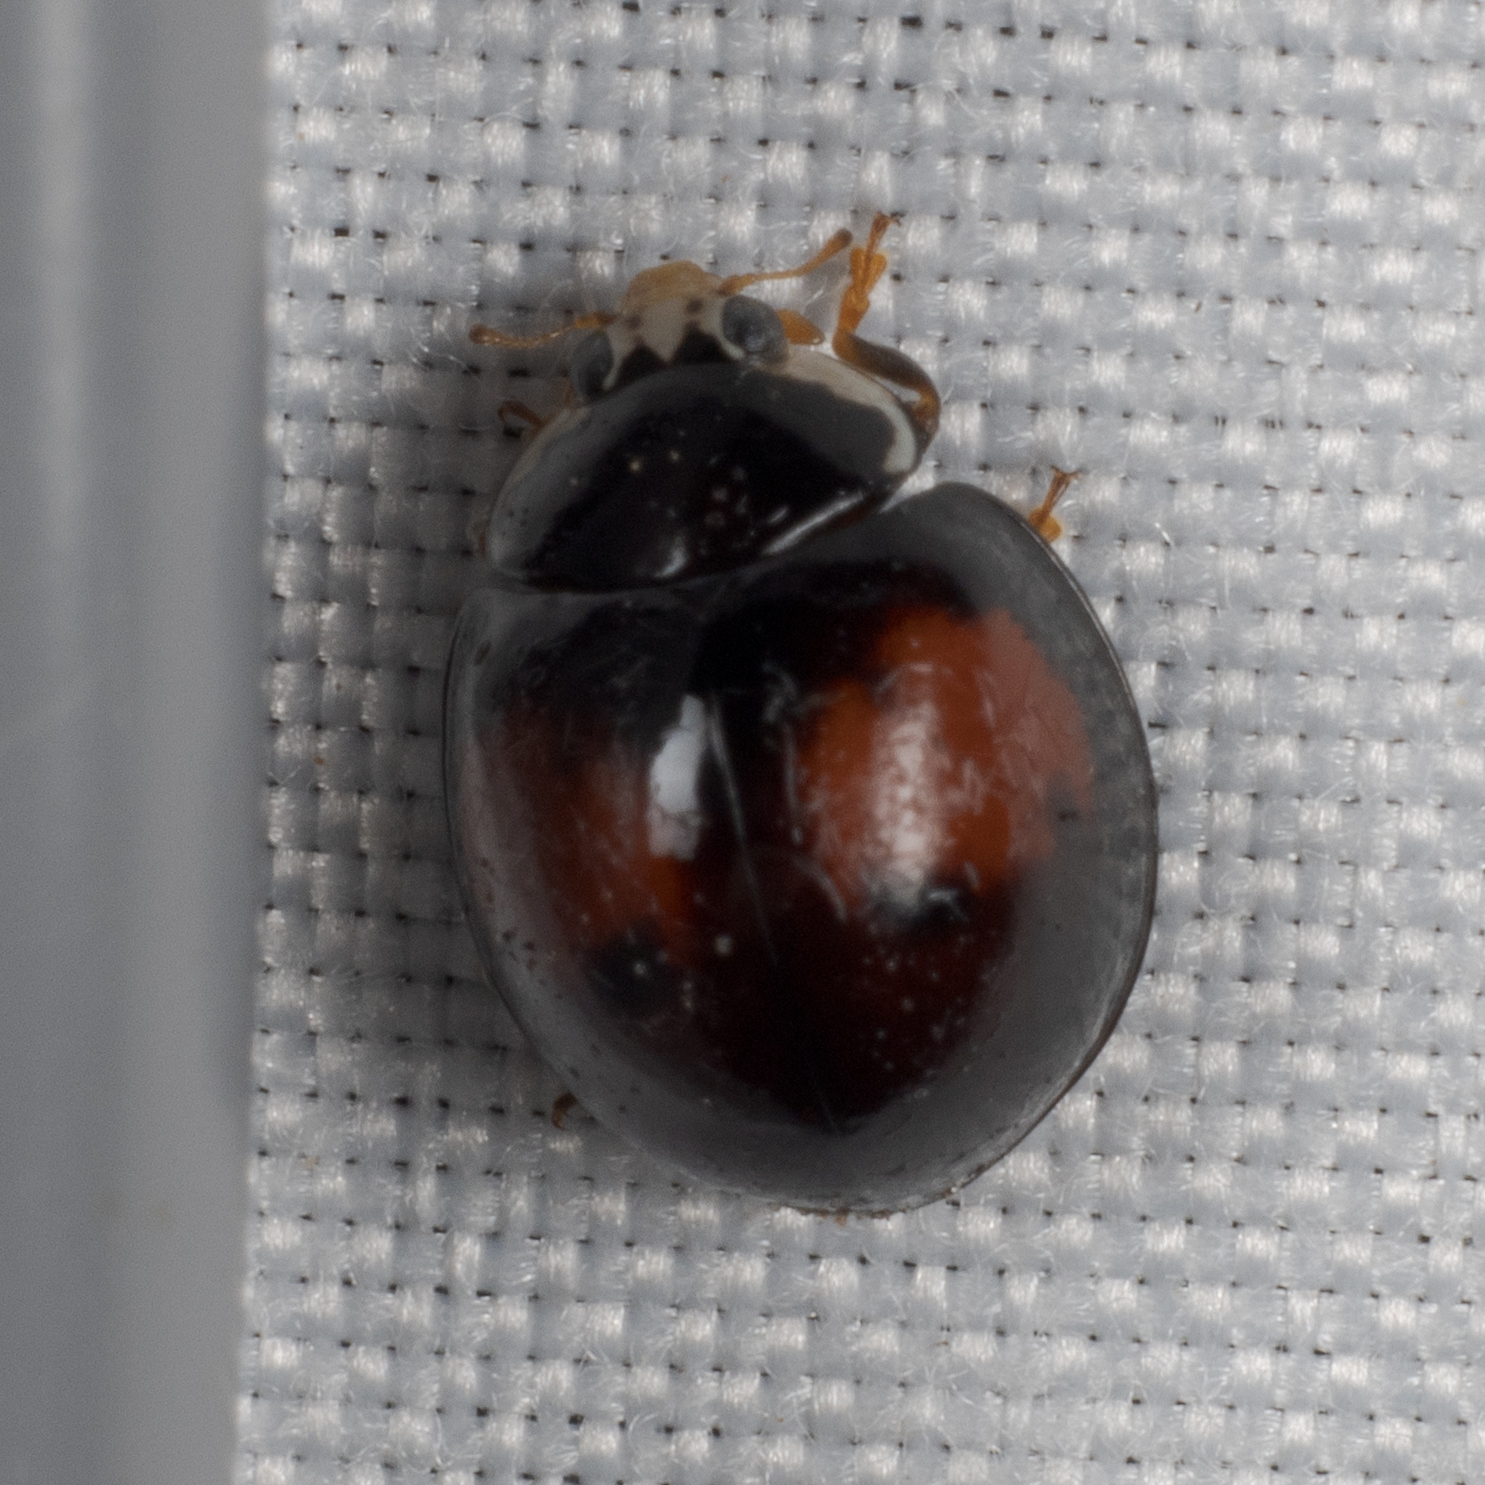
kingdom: Animalia
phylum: Arthropoda
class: Insecta
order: Coleoptera
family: Coccinellidae
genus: Olla
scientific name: Olla v-nigrum
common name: Ashy gray lady beetle
